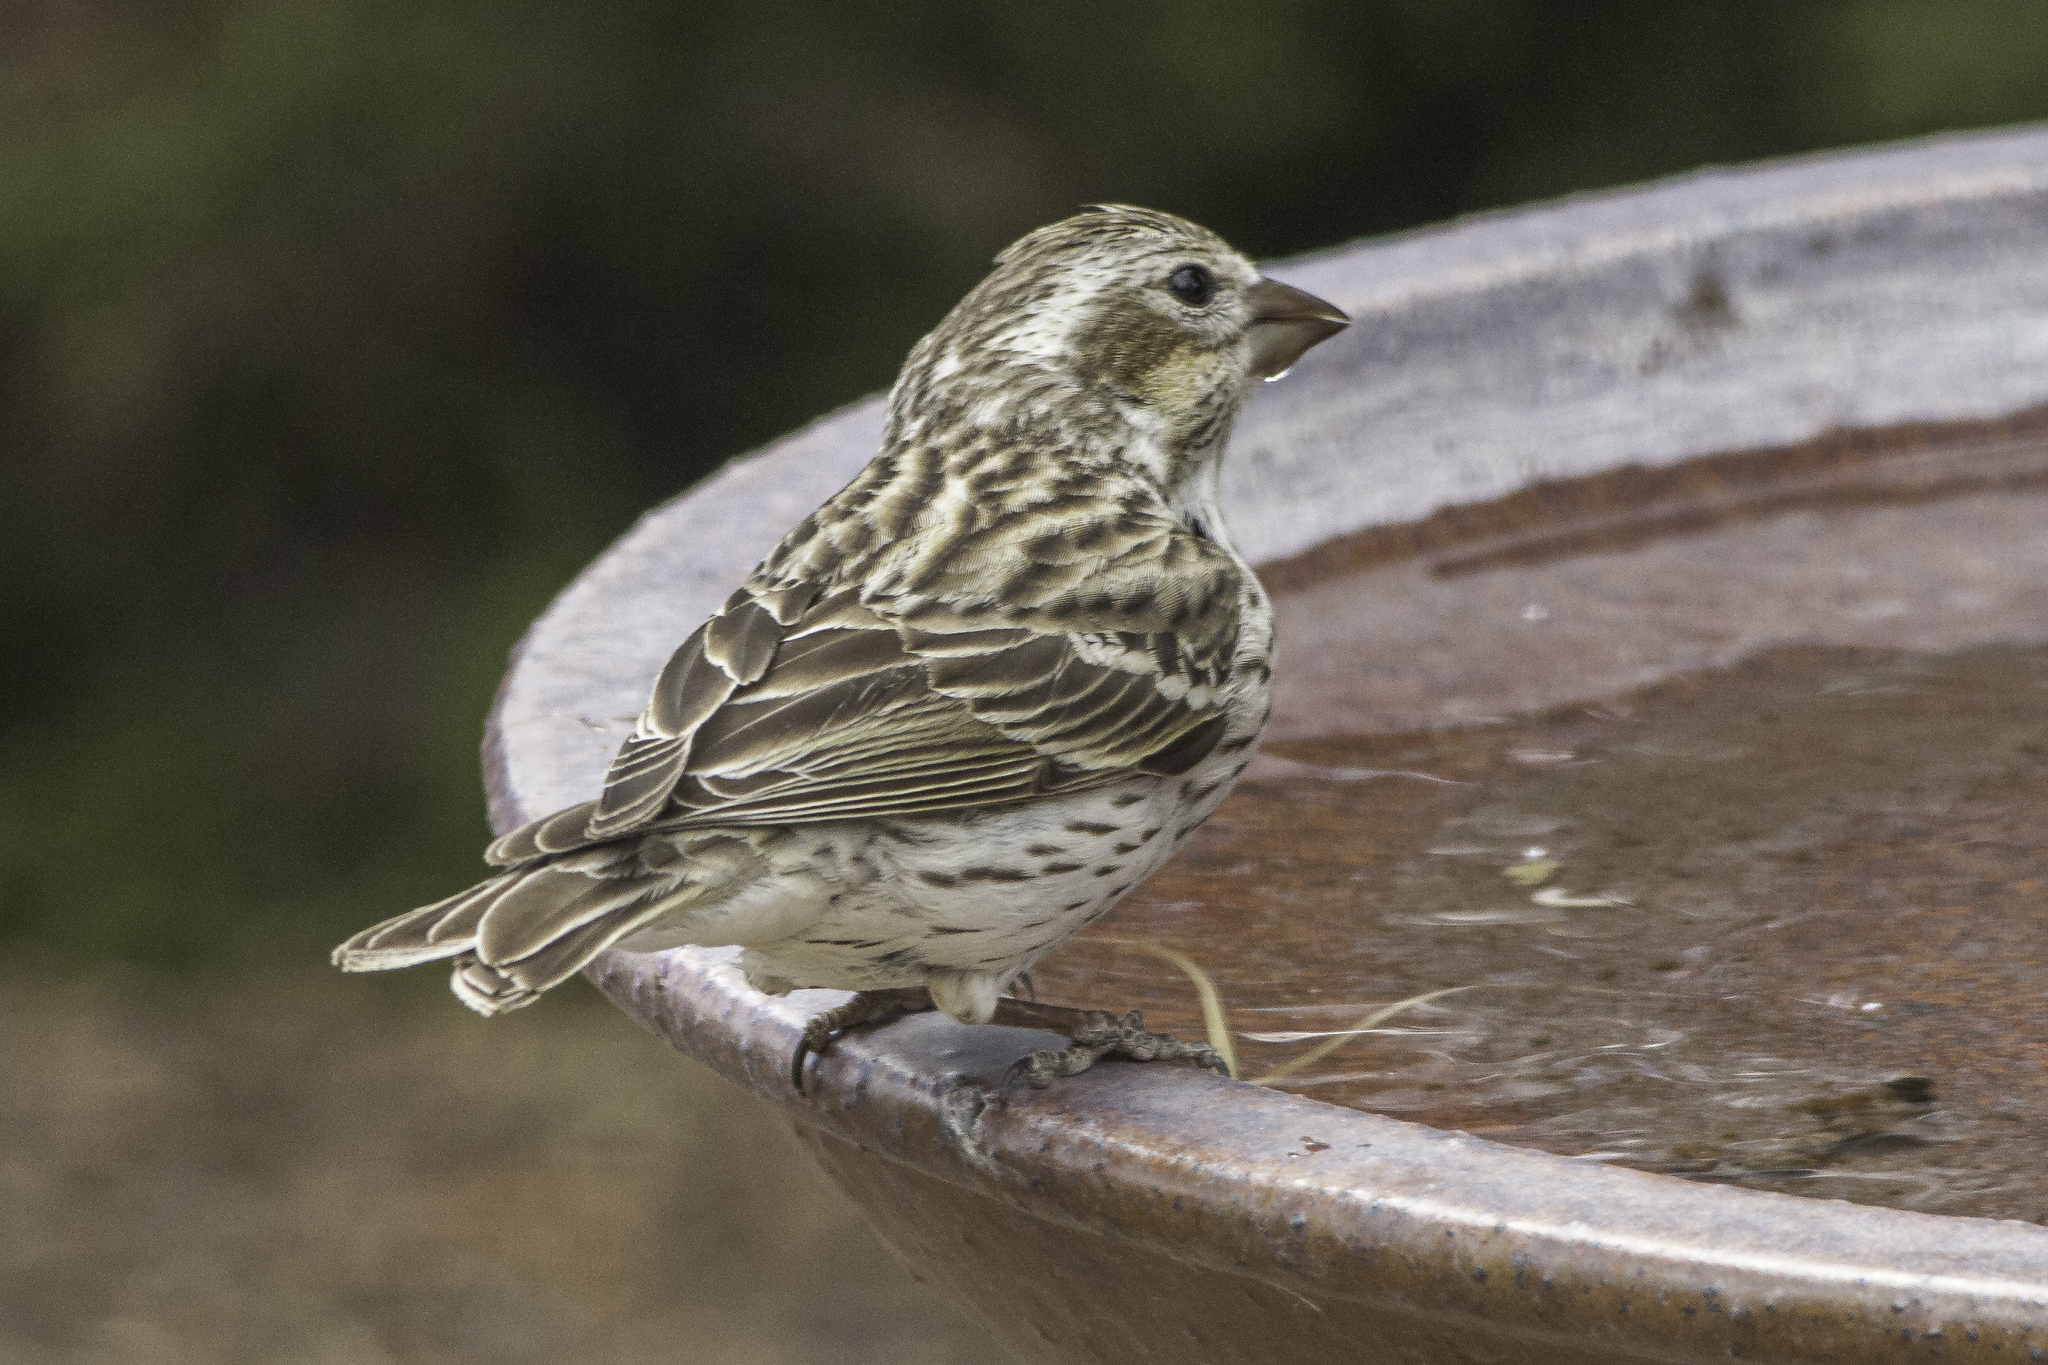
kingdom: Animalia
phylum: Chordata
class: Aves
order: Passeriformes
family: Fringillidae
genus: Haemorhous
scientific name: Haemorhous cassinii
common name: Cassin's finch
